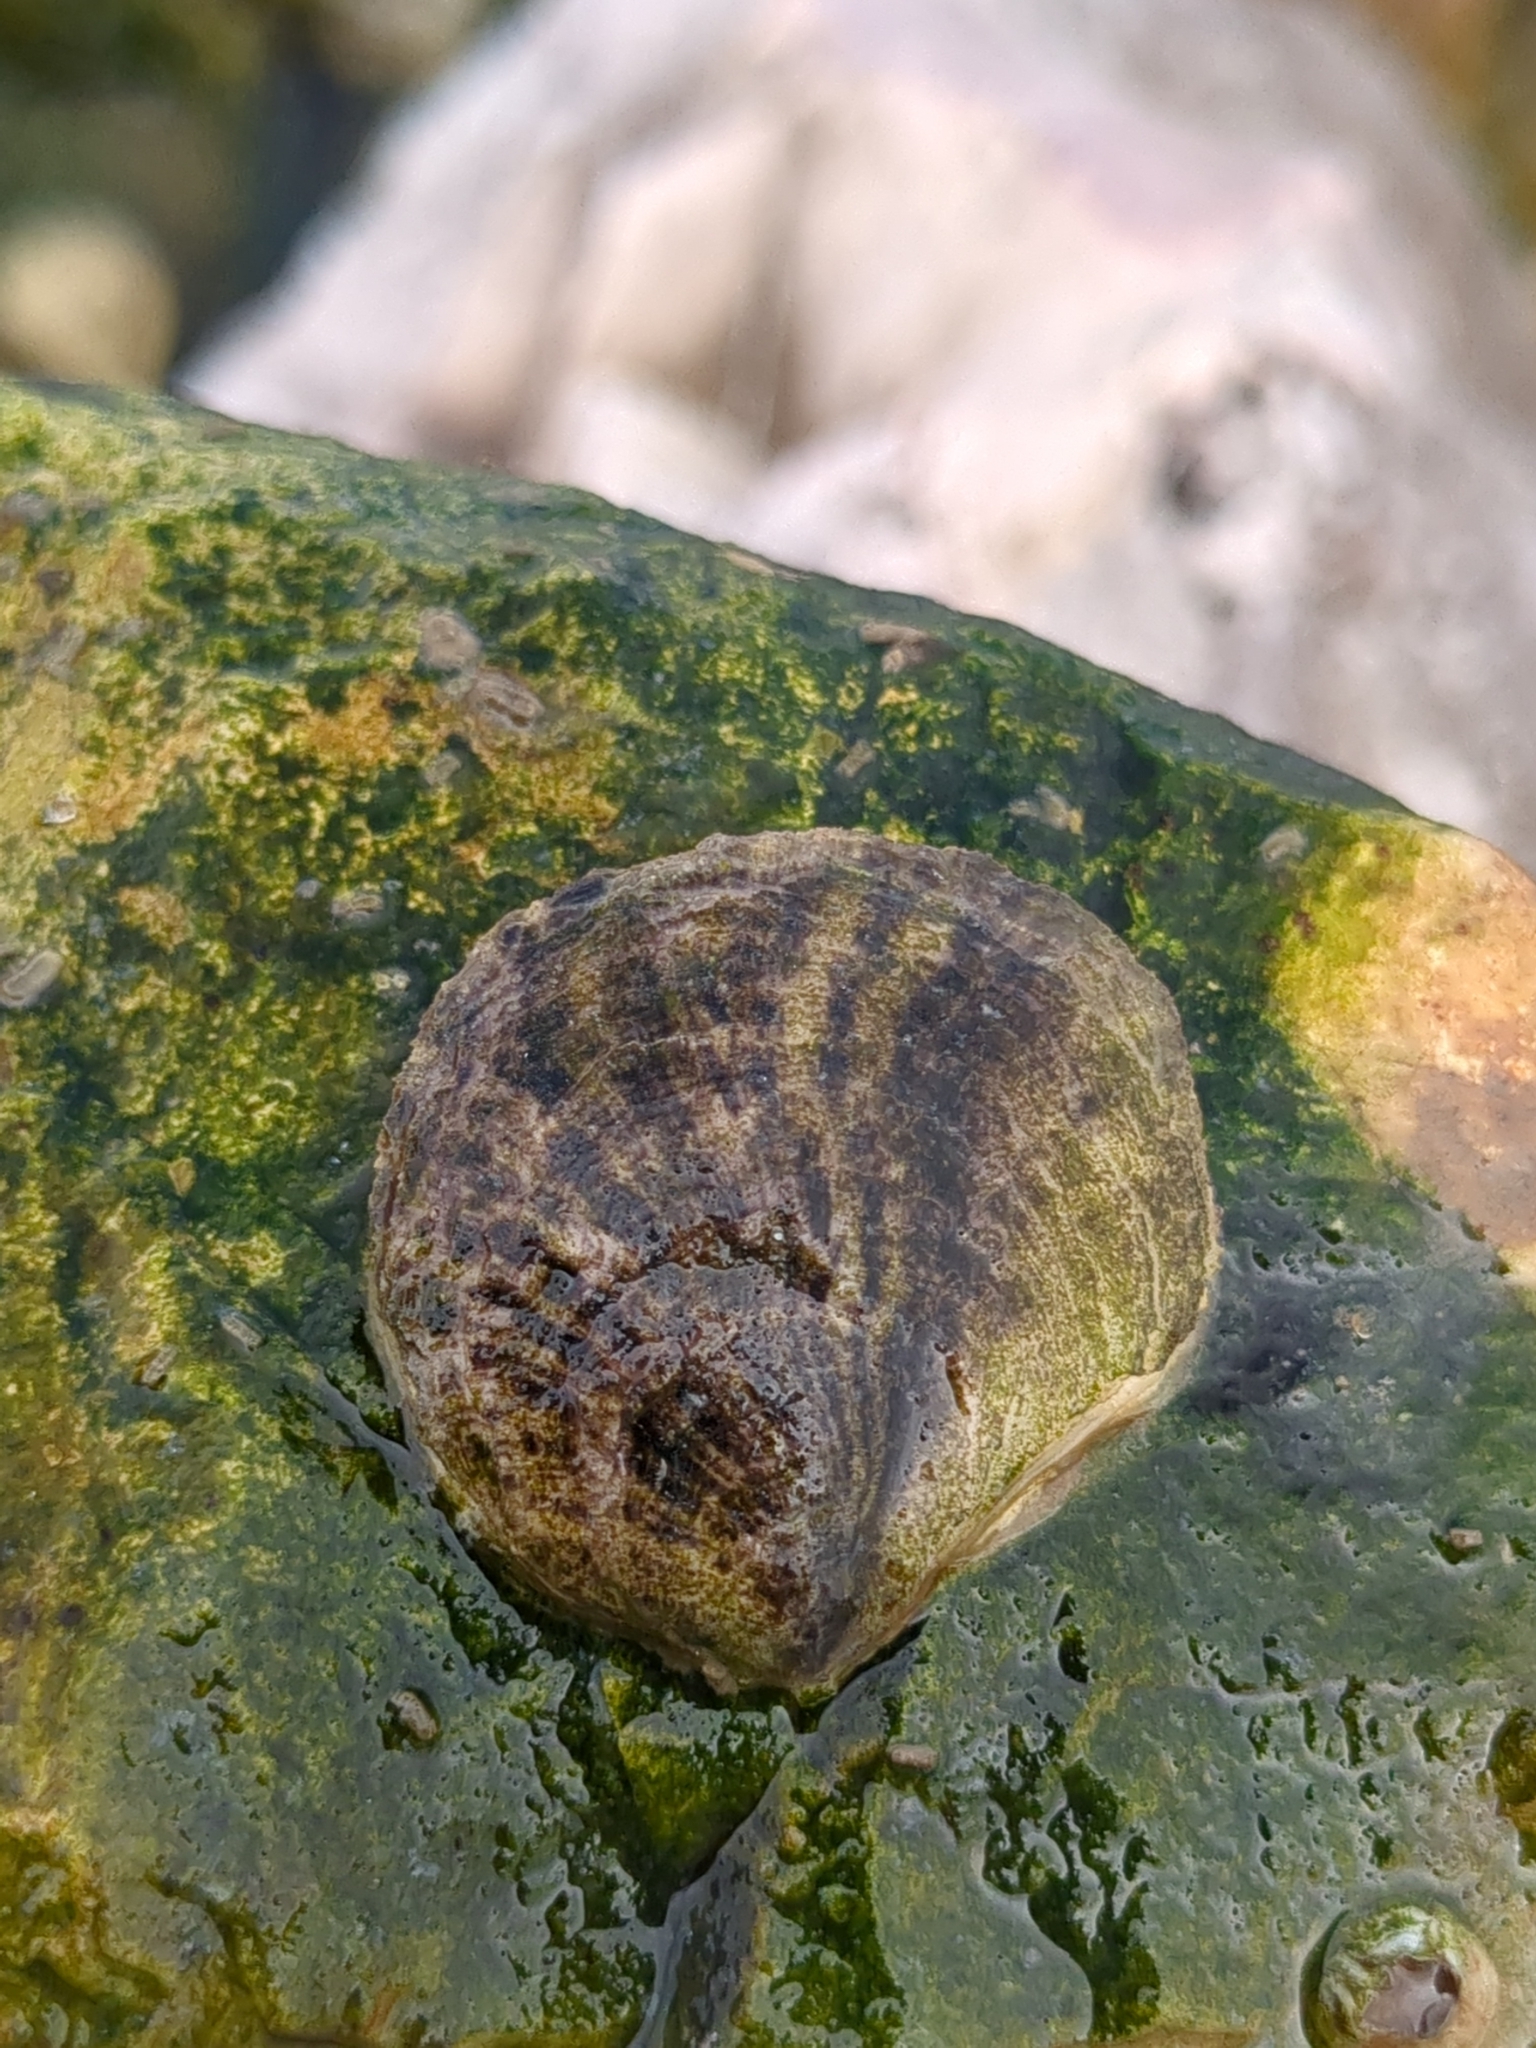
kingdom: Animalia
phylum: Mollusca
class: Bivalvia
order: Ostreida
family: Ostreidae
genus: Crassostrea
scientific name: Crassostrea virginica
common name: American oyster
